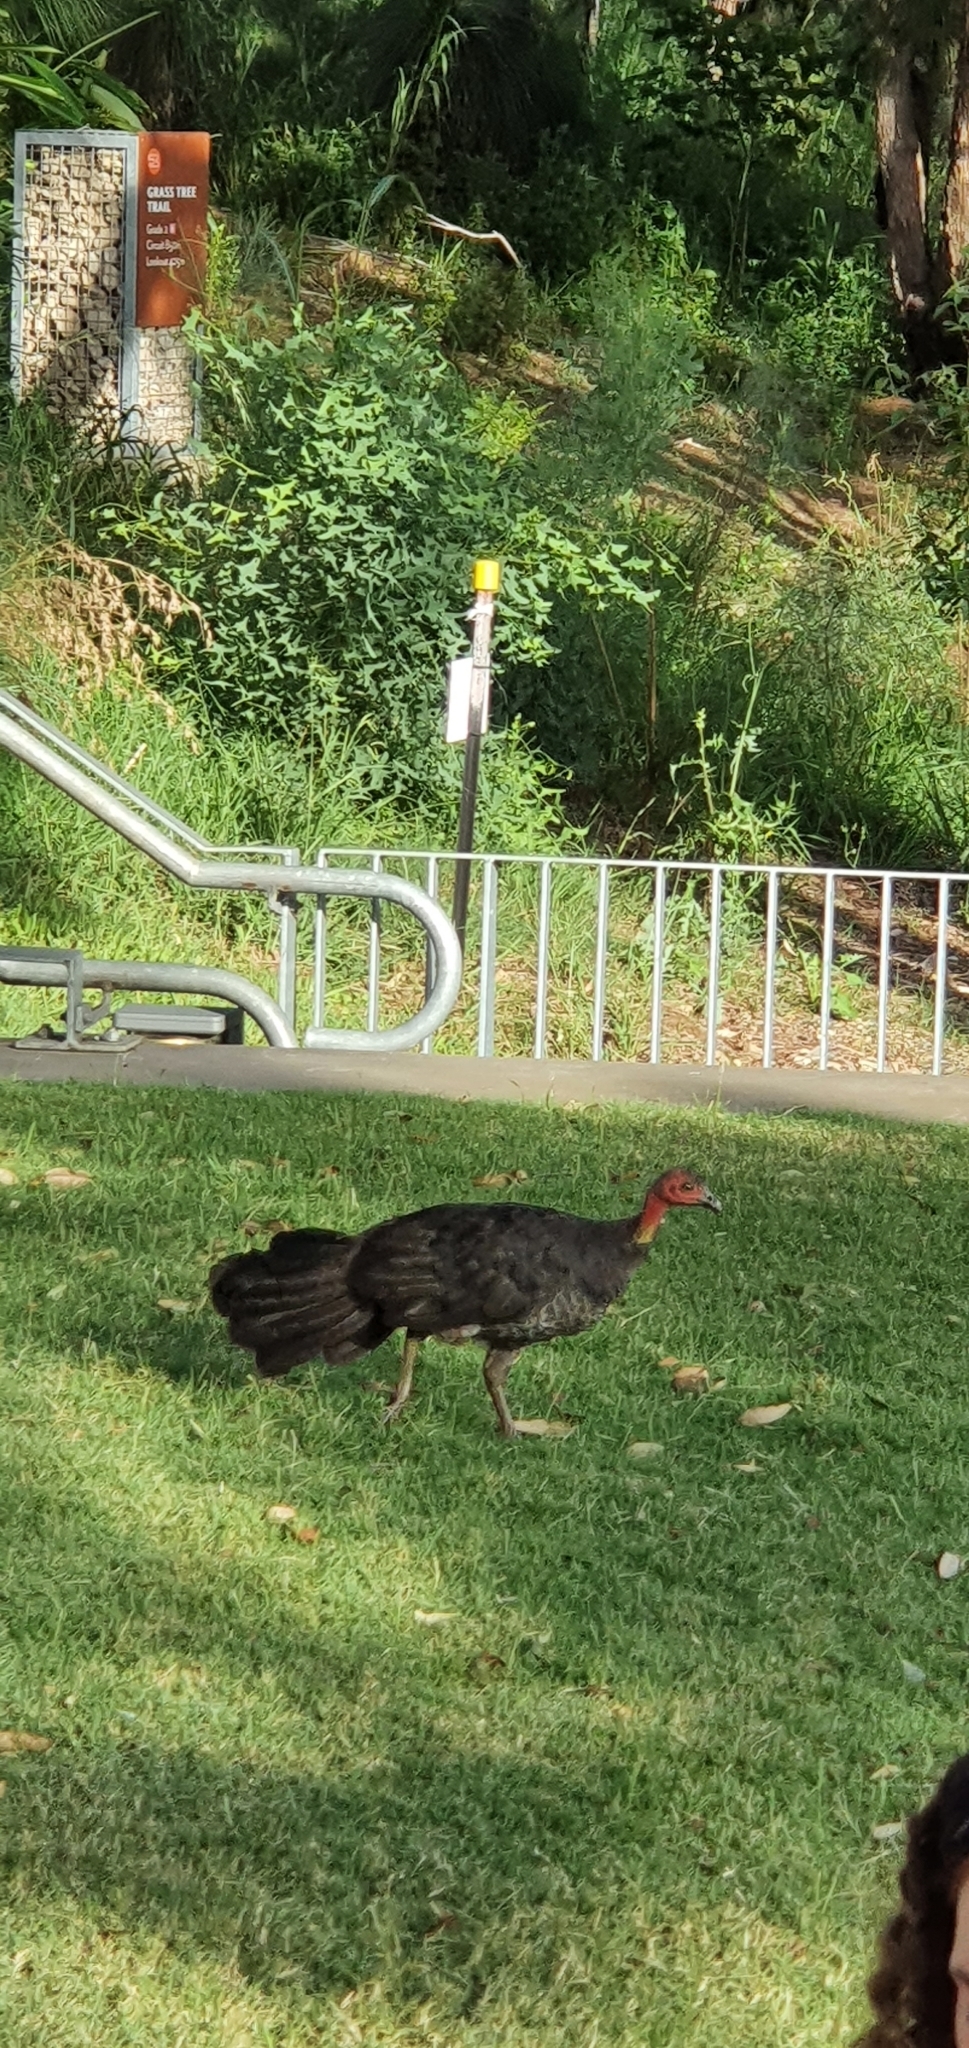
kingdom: Animalia
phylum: Chordata
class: Aves
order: Galliformes
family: Megapodiidae
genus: Alectura
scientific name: Alectura lathami
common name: Australian brushturkey
